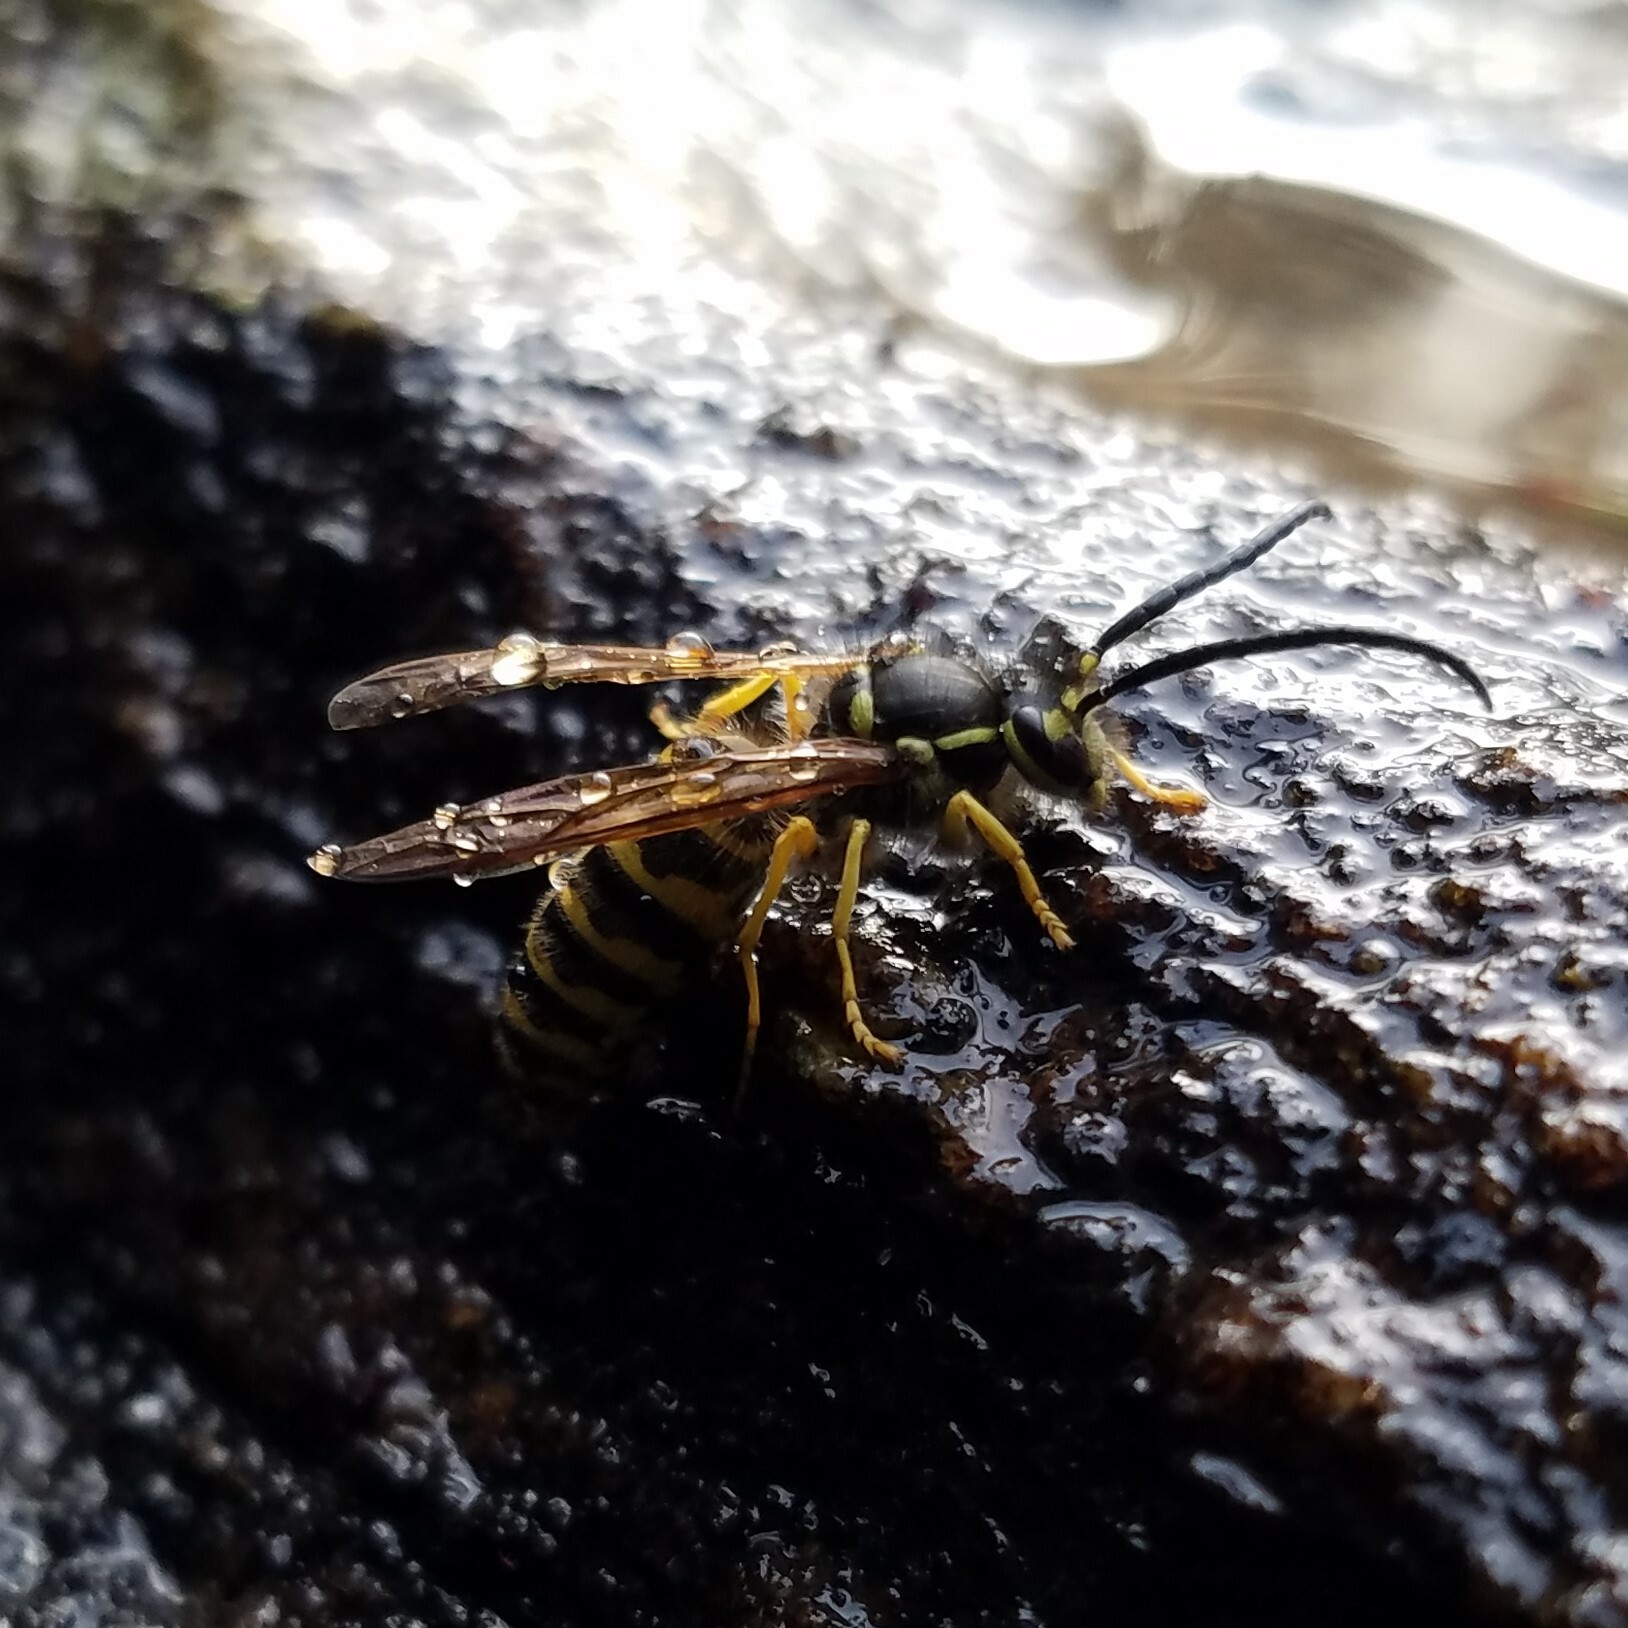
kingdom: Animalia
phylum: Arthropoda
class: Insecta
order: Hymenoptera
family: Vespidae
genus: Vespula
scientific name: Vespula maculifrons
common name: Eastern yellowjacket
